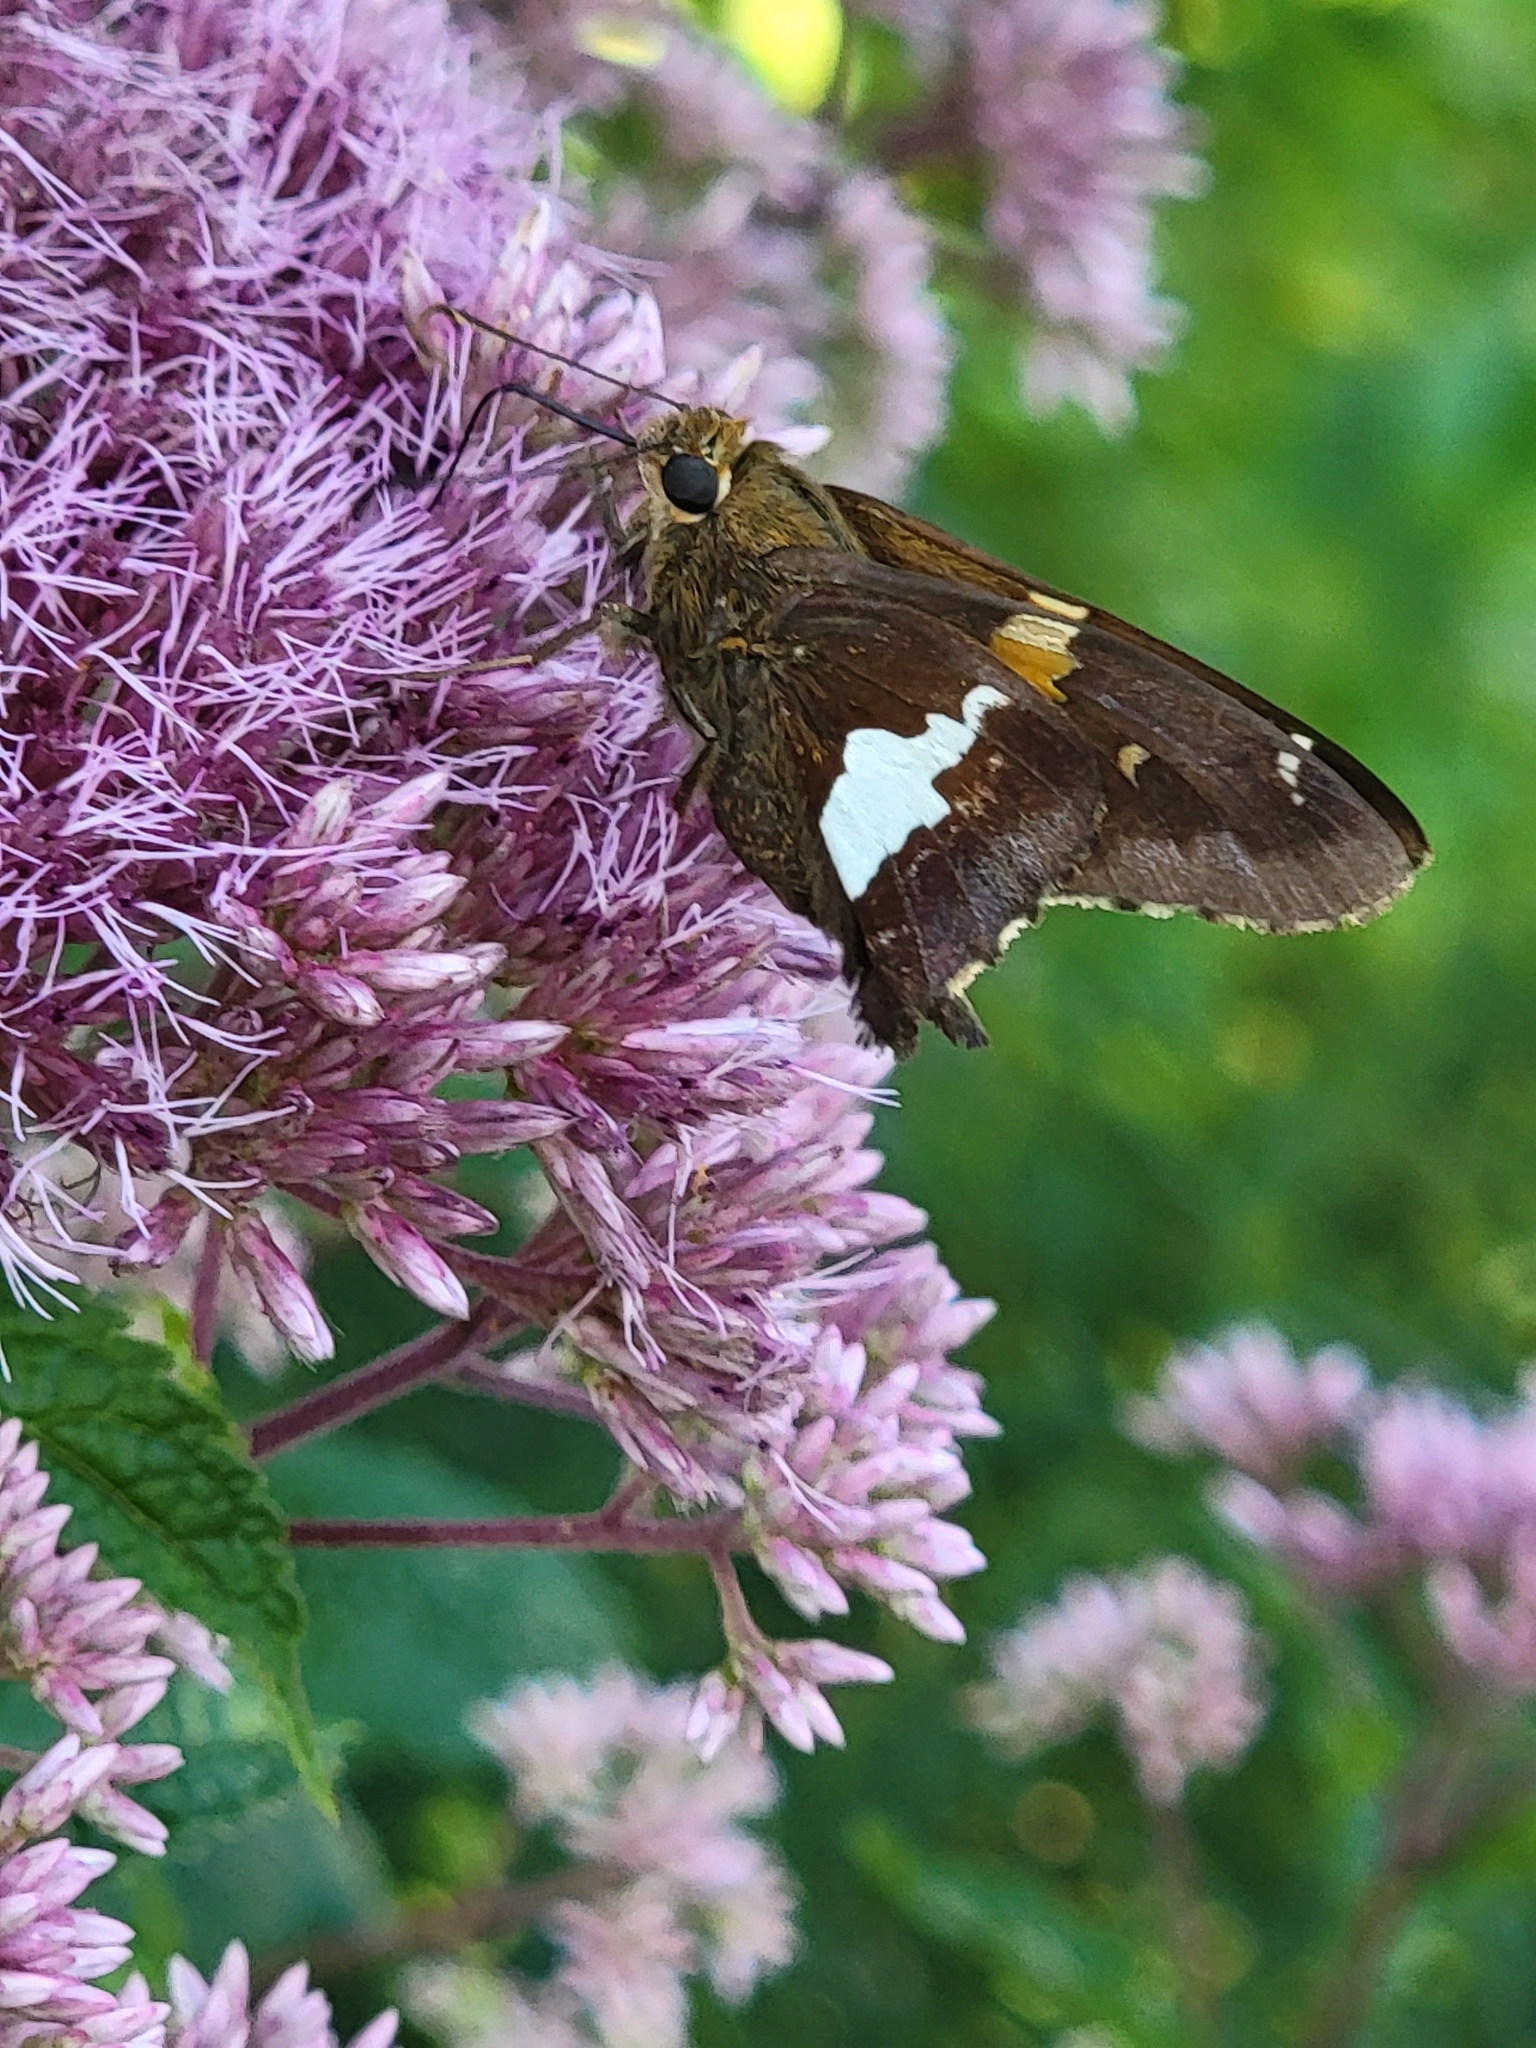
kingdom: Animalia
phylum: Arthropoda
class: Insecta
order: Lepidoptera
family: Hesperiidae
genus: Epargyreus
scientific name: Epargyreus clarus
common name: Silver-spotted skipper
